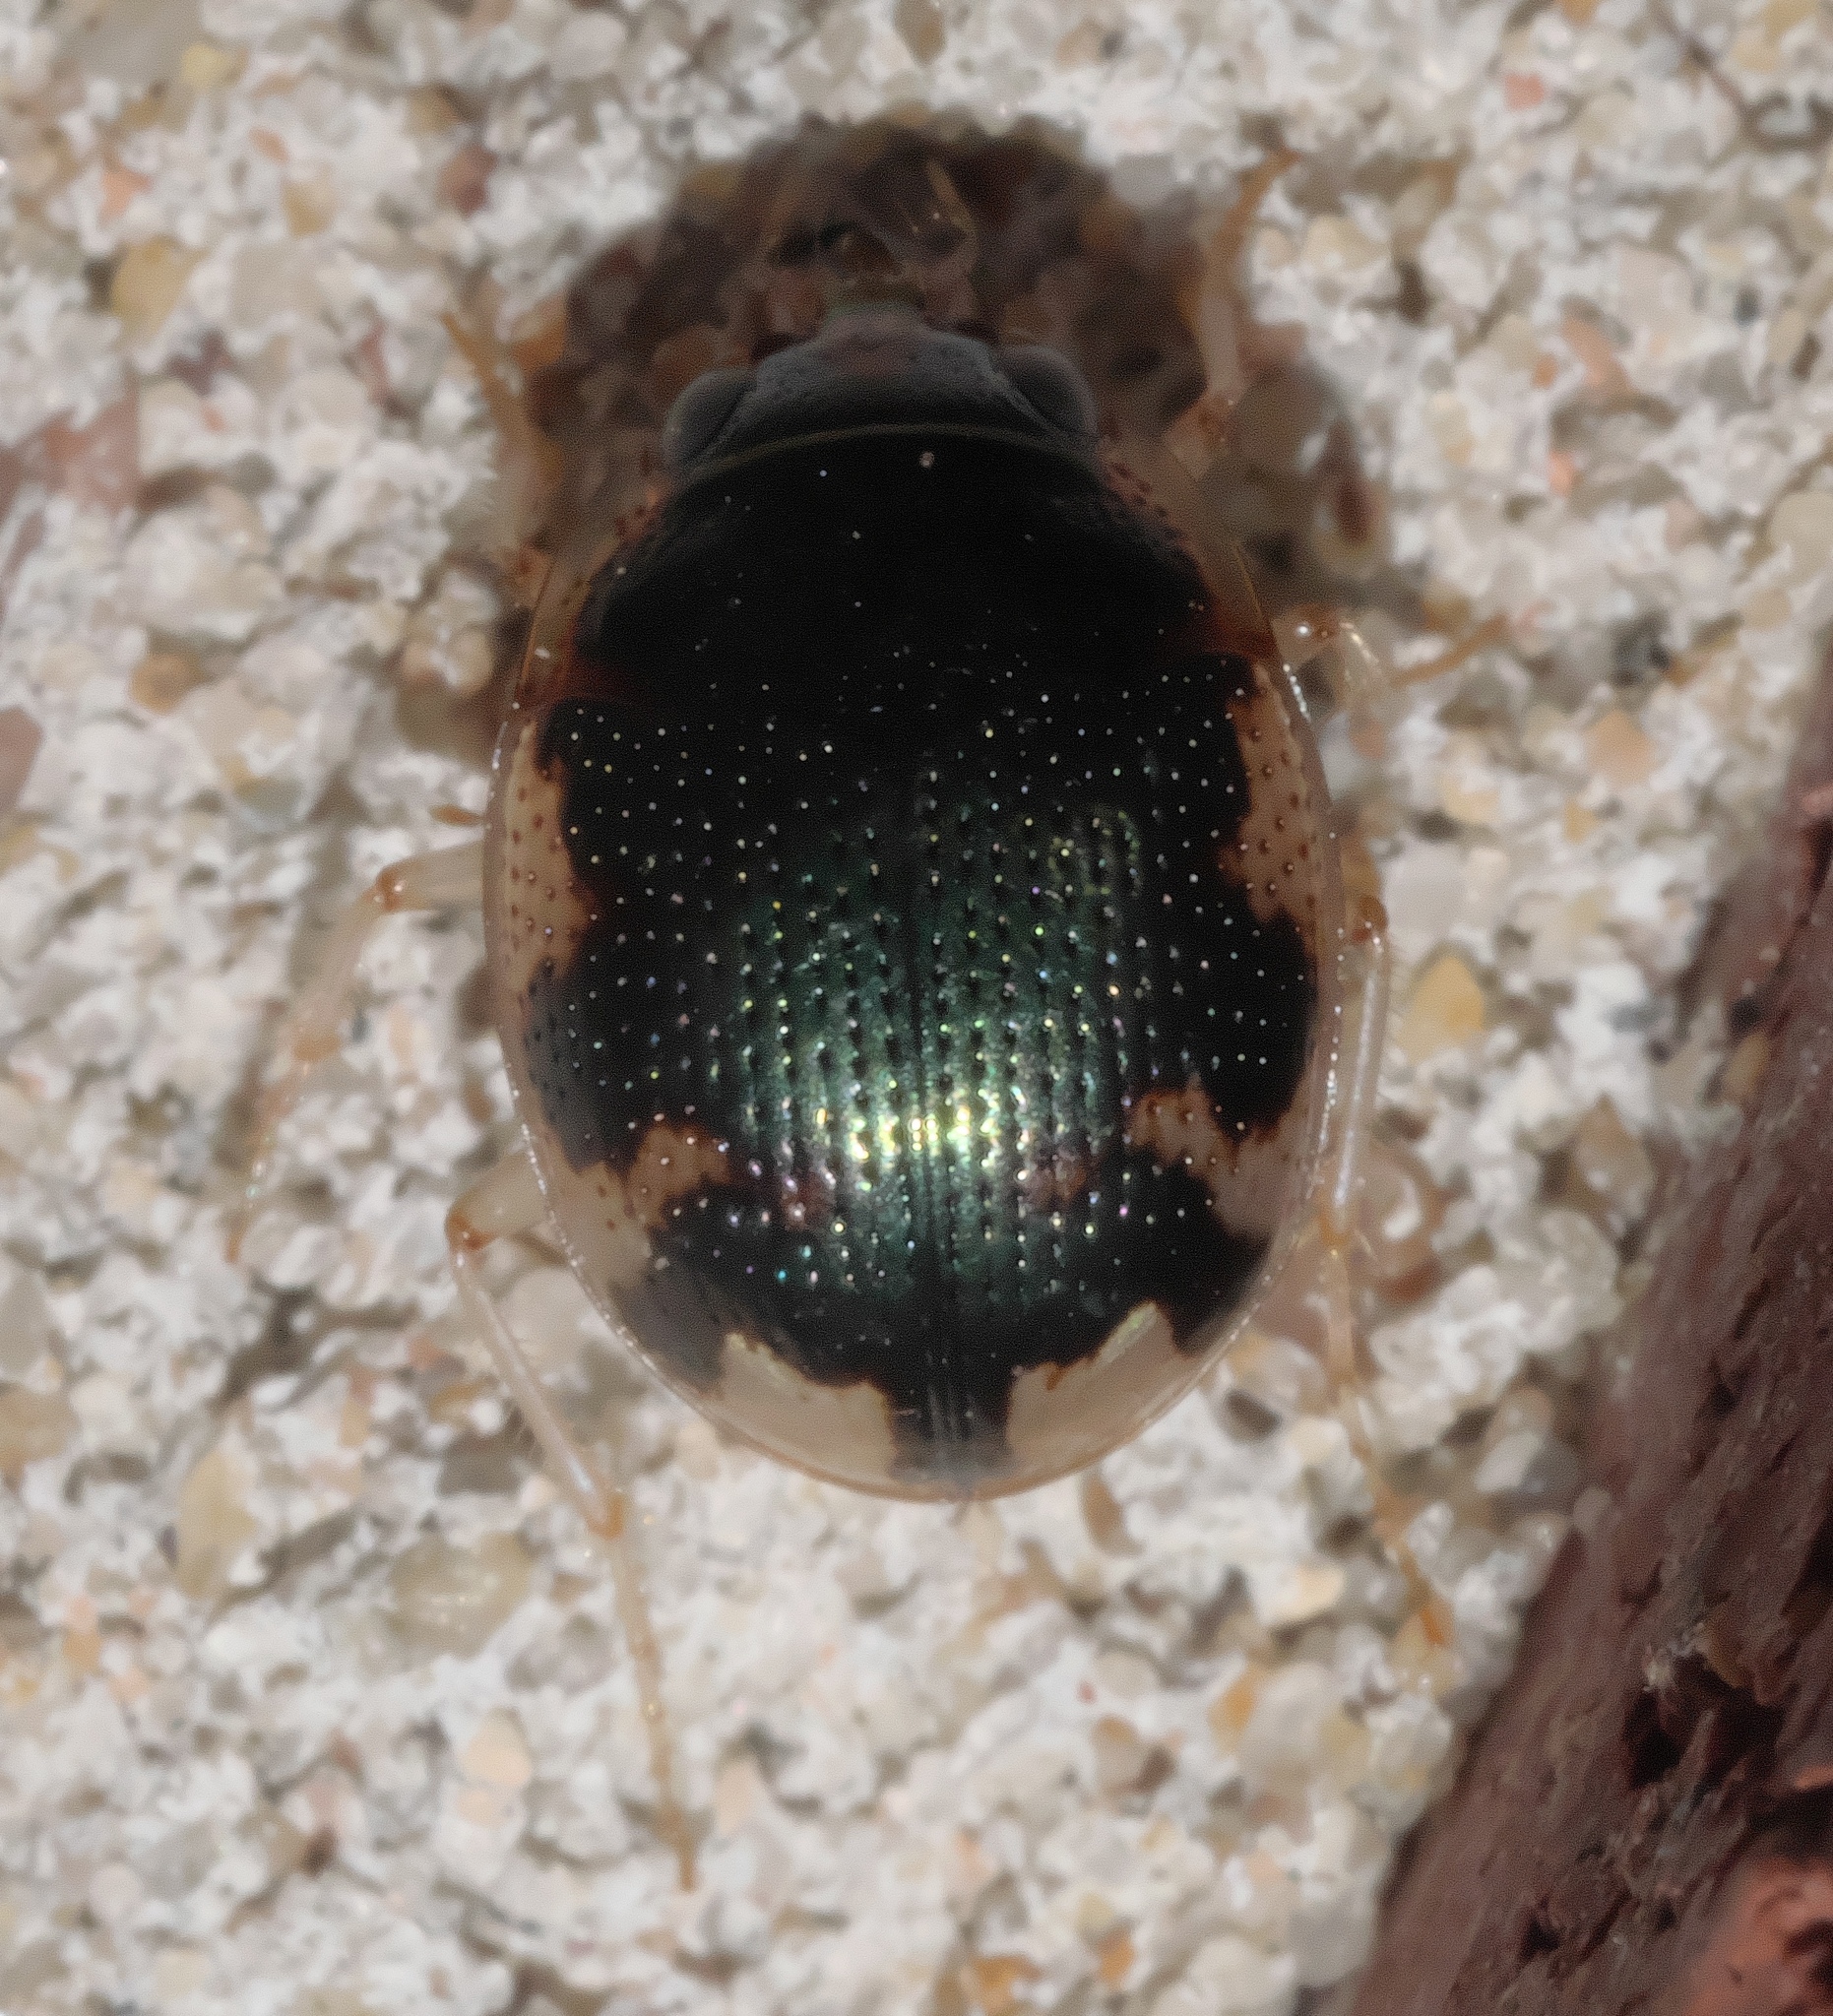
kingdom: Animalia
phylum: Arthropoda
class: Insecta
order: Coleoptera
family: Carabidae
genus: Omophron
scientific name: Omophron americanum
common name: American round sand beetle
